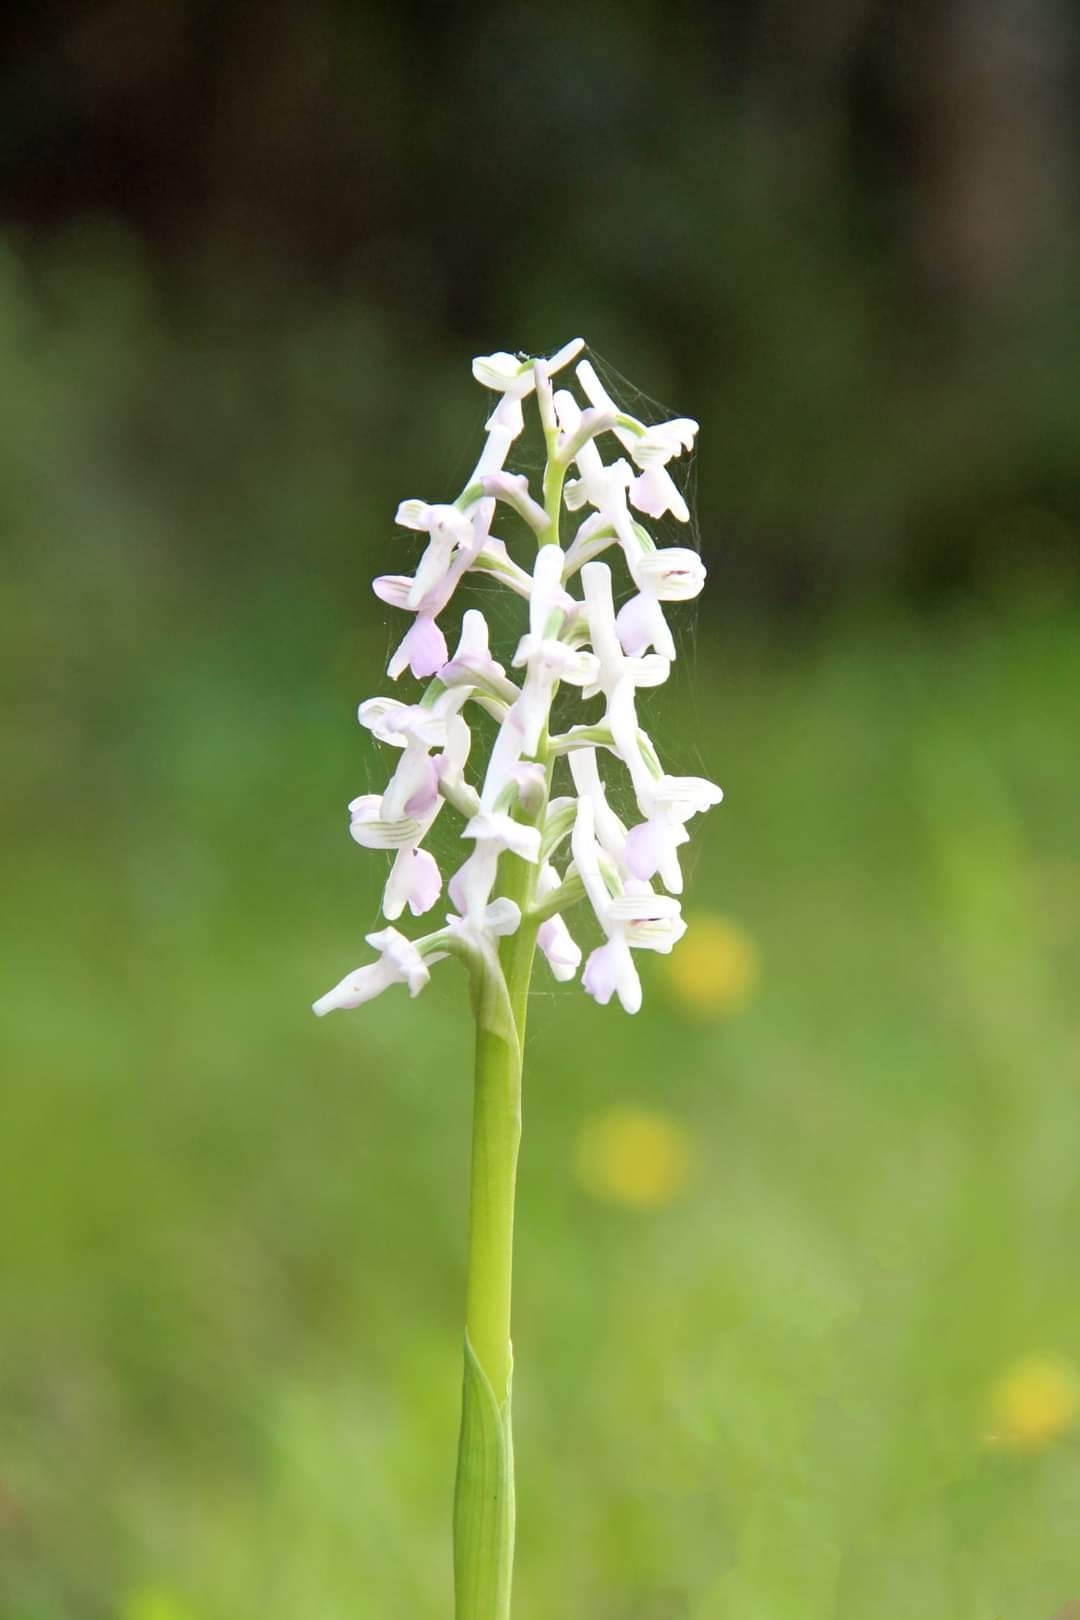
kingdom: Plantae
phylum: Tracheophyta
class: Liliopsida
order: Asparagales
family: Orchidaceae
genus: Anacamptis
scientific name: Anacamptis morio
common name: Green-winged orchid
